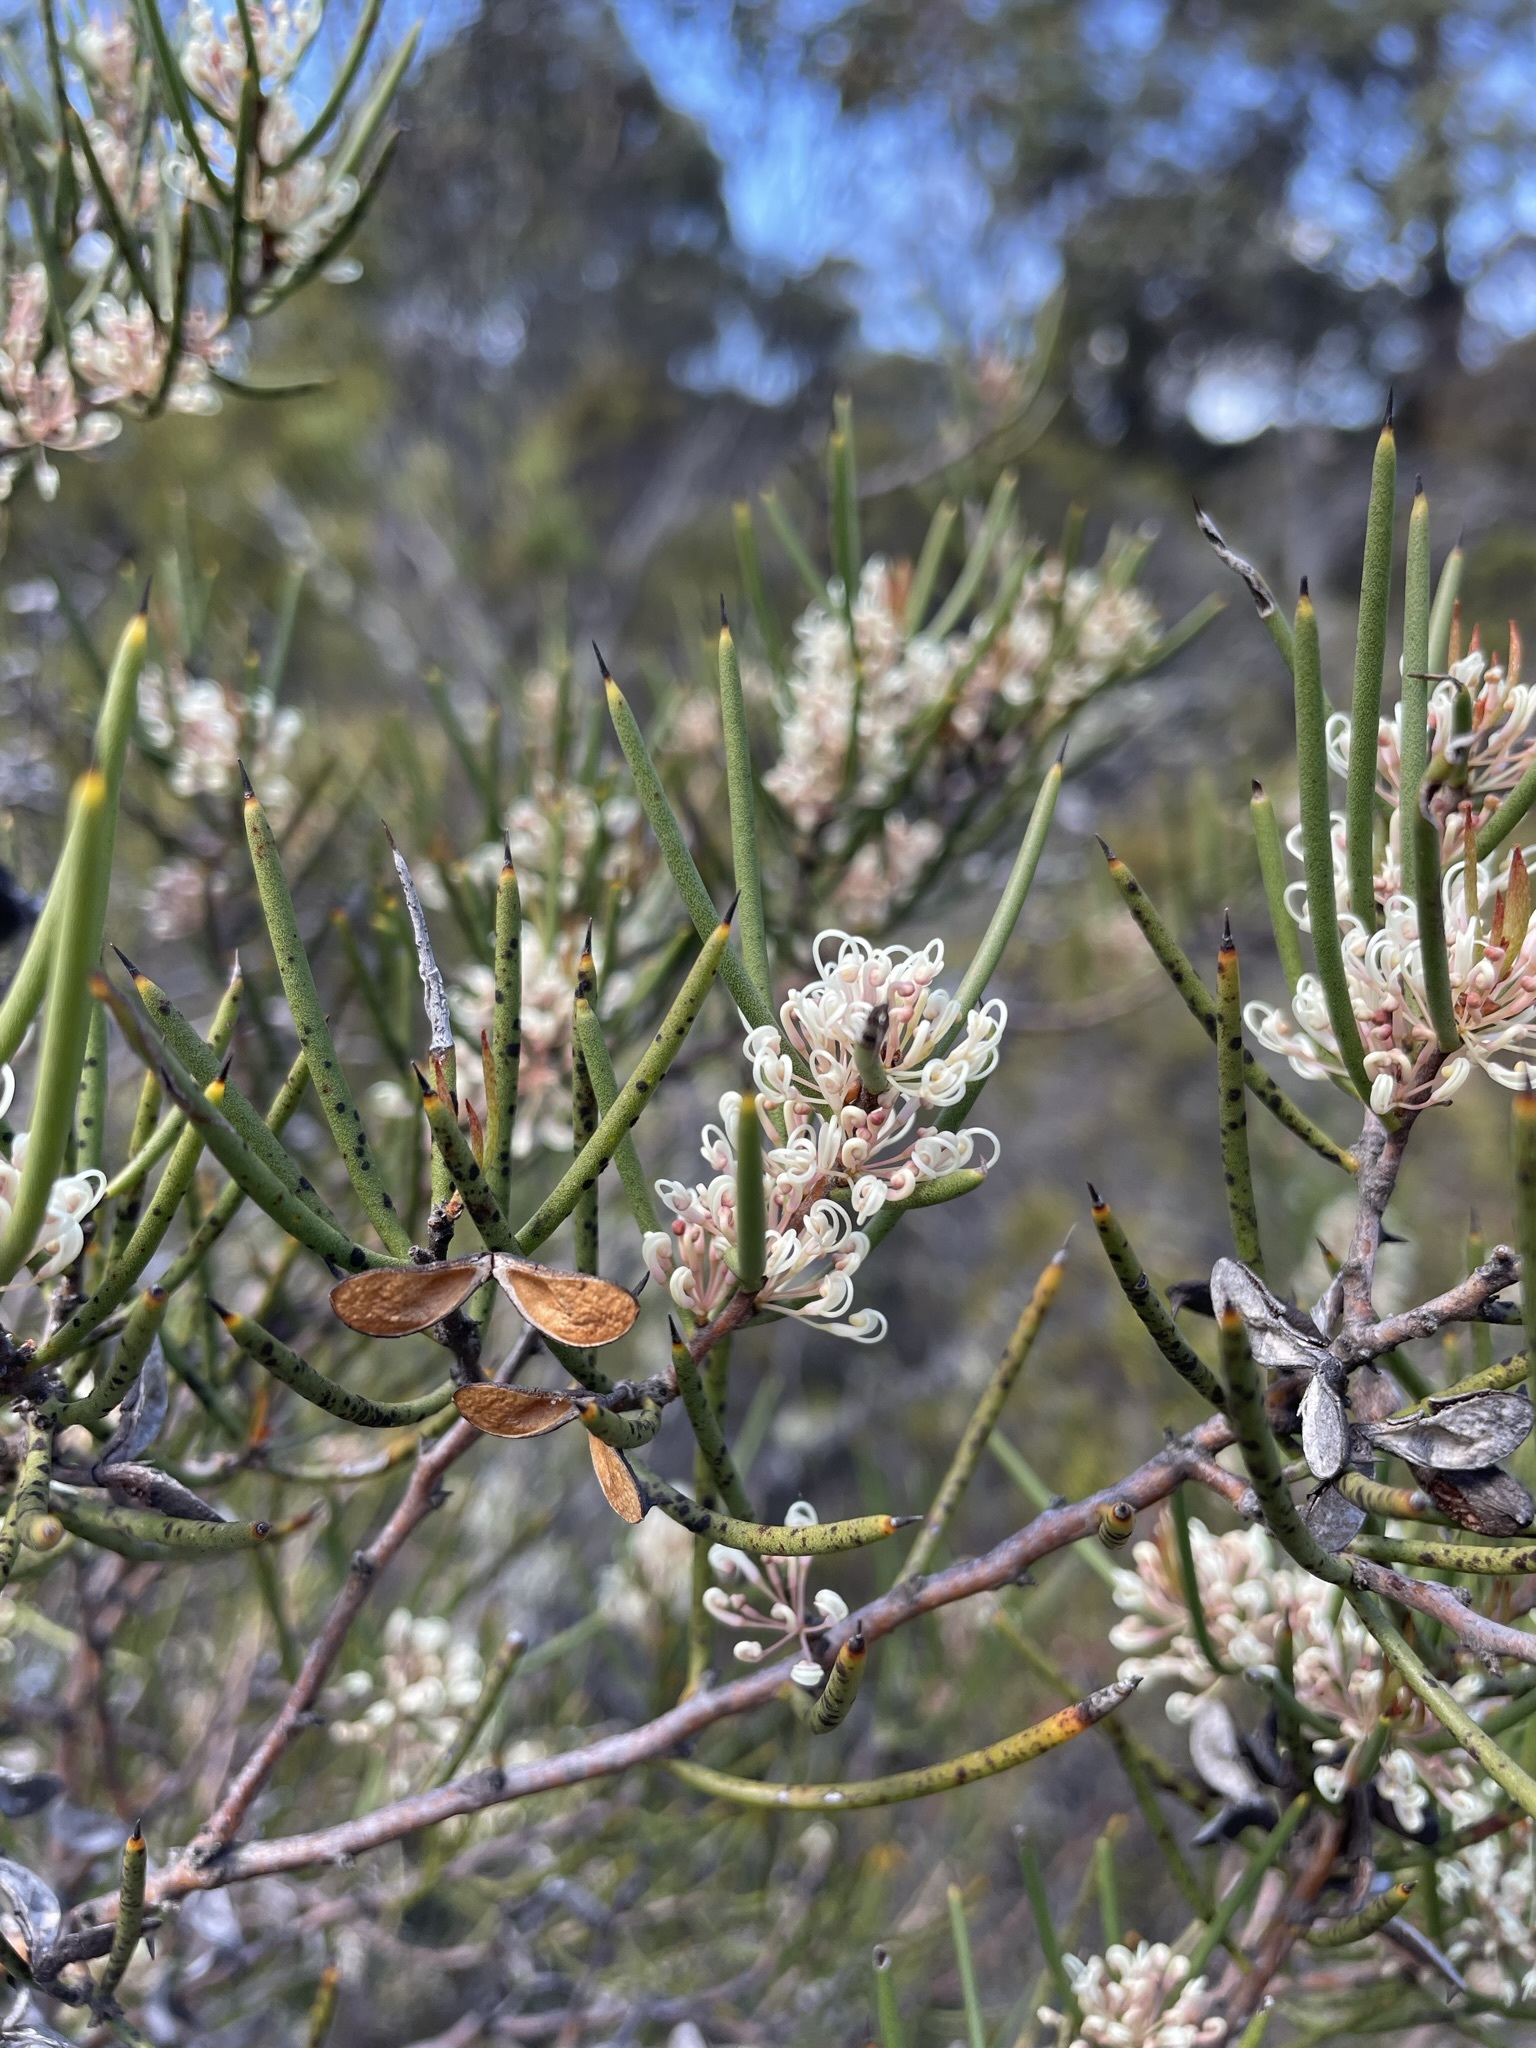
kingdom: Plantae
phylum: Tracheophyta
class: Magnoliopsida
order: Proteales
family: Proteaceae
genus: Hakea
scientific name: Hakea microcarpa
